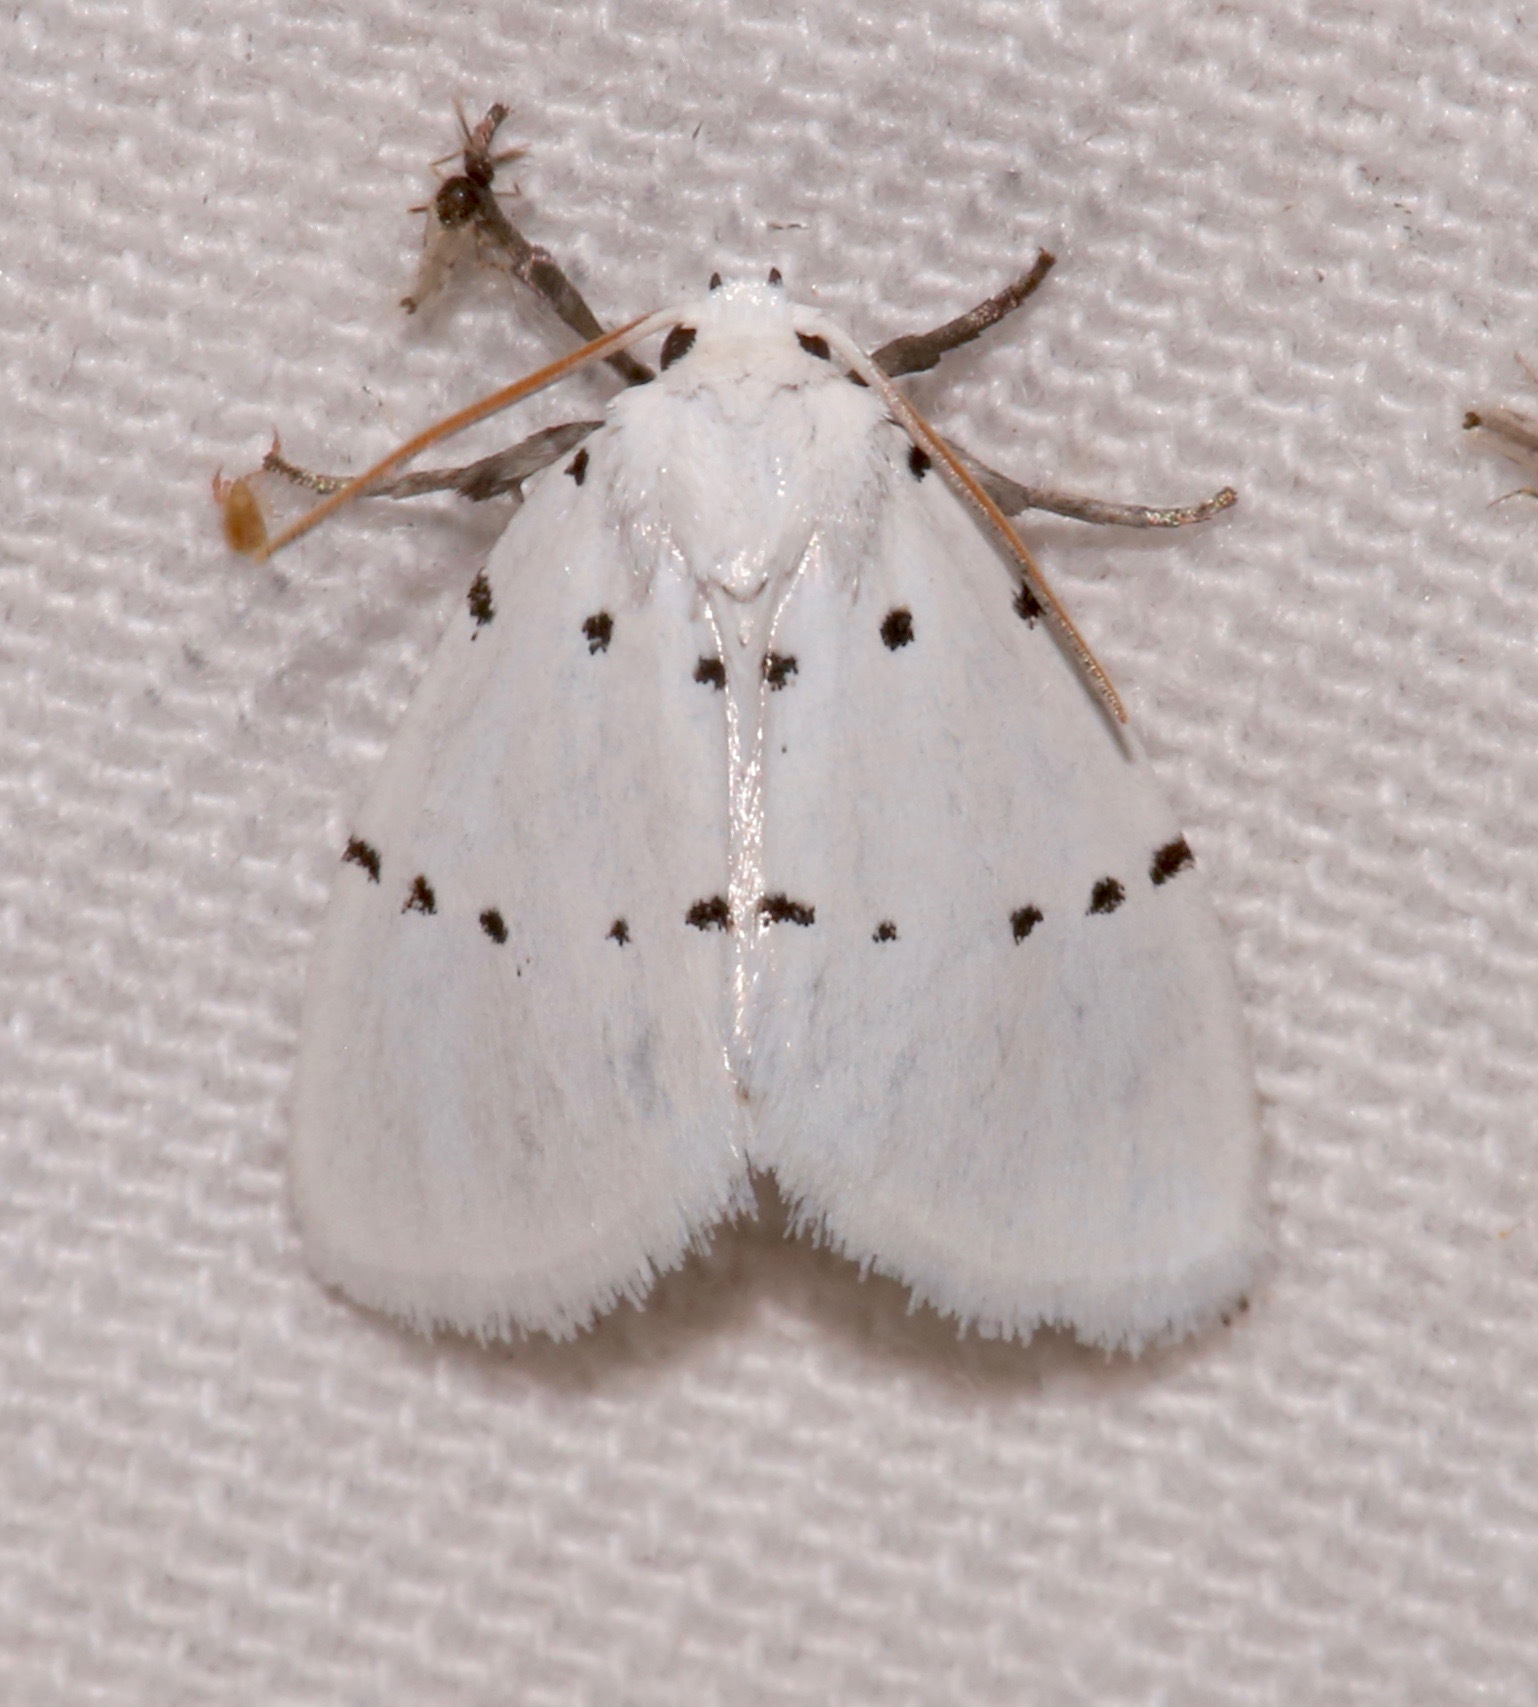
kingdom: Animalia
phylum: Arthropoda
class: Insecta
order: Lepidoptera
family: Noctuidae
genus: Homolagoa
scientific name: Homolagoa grotelliformis
